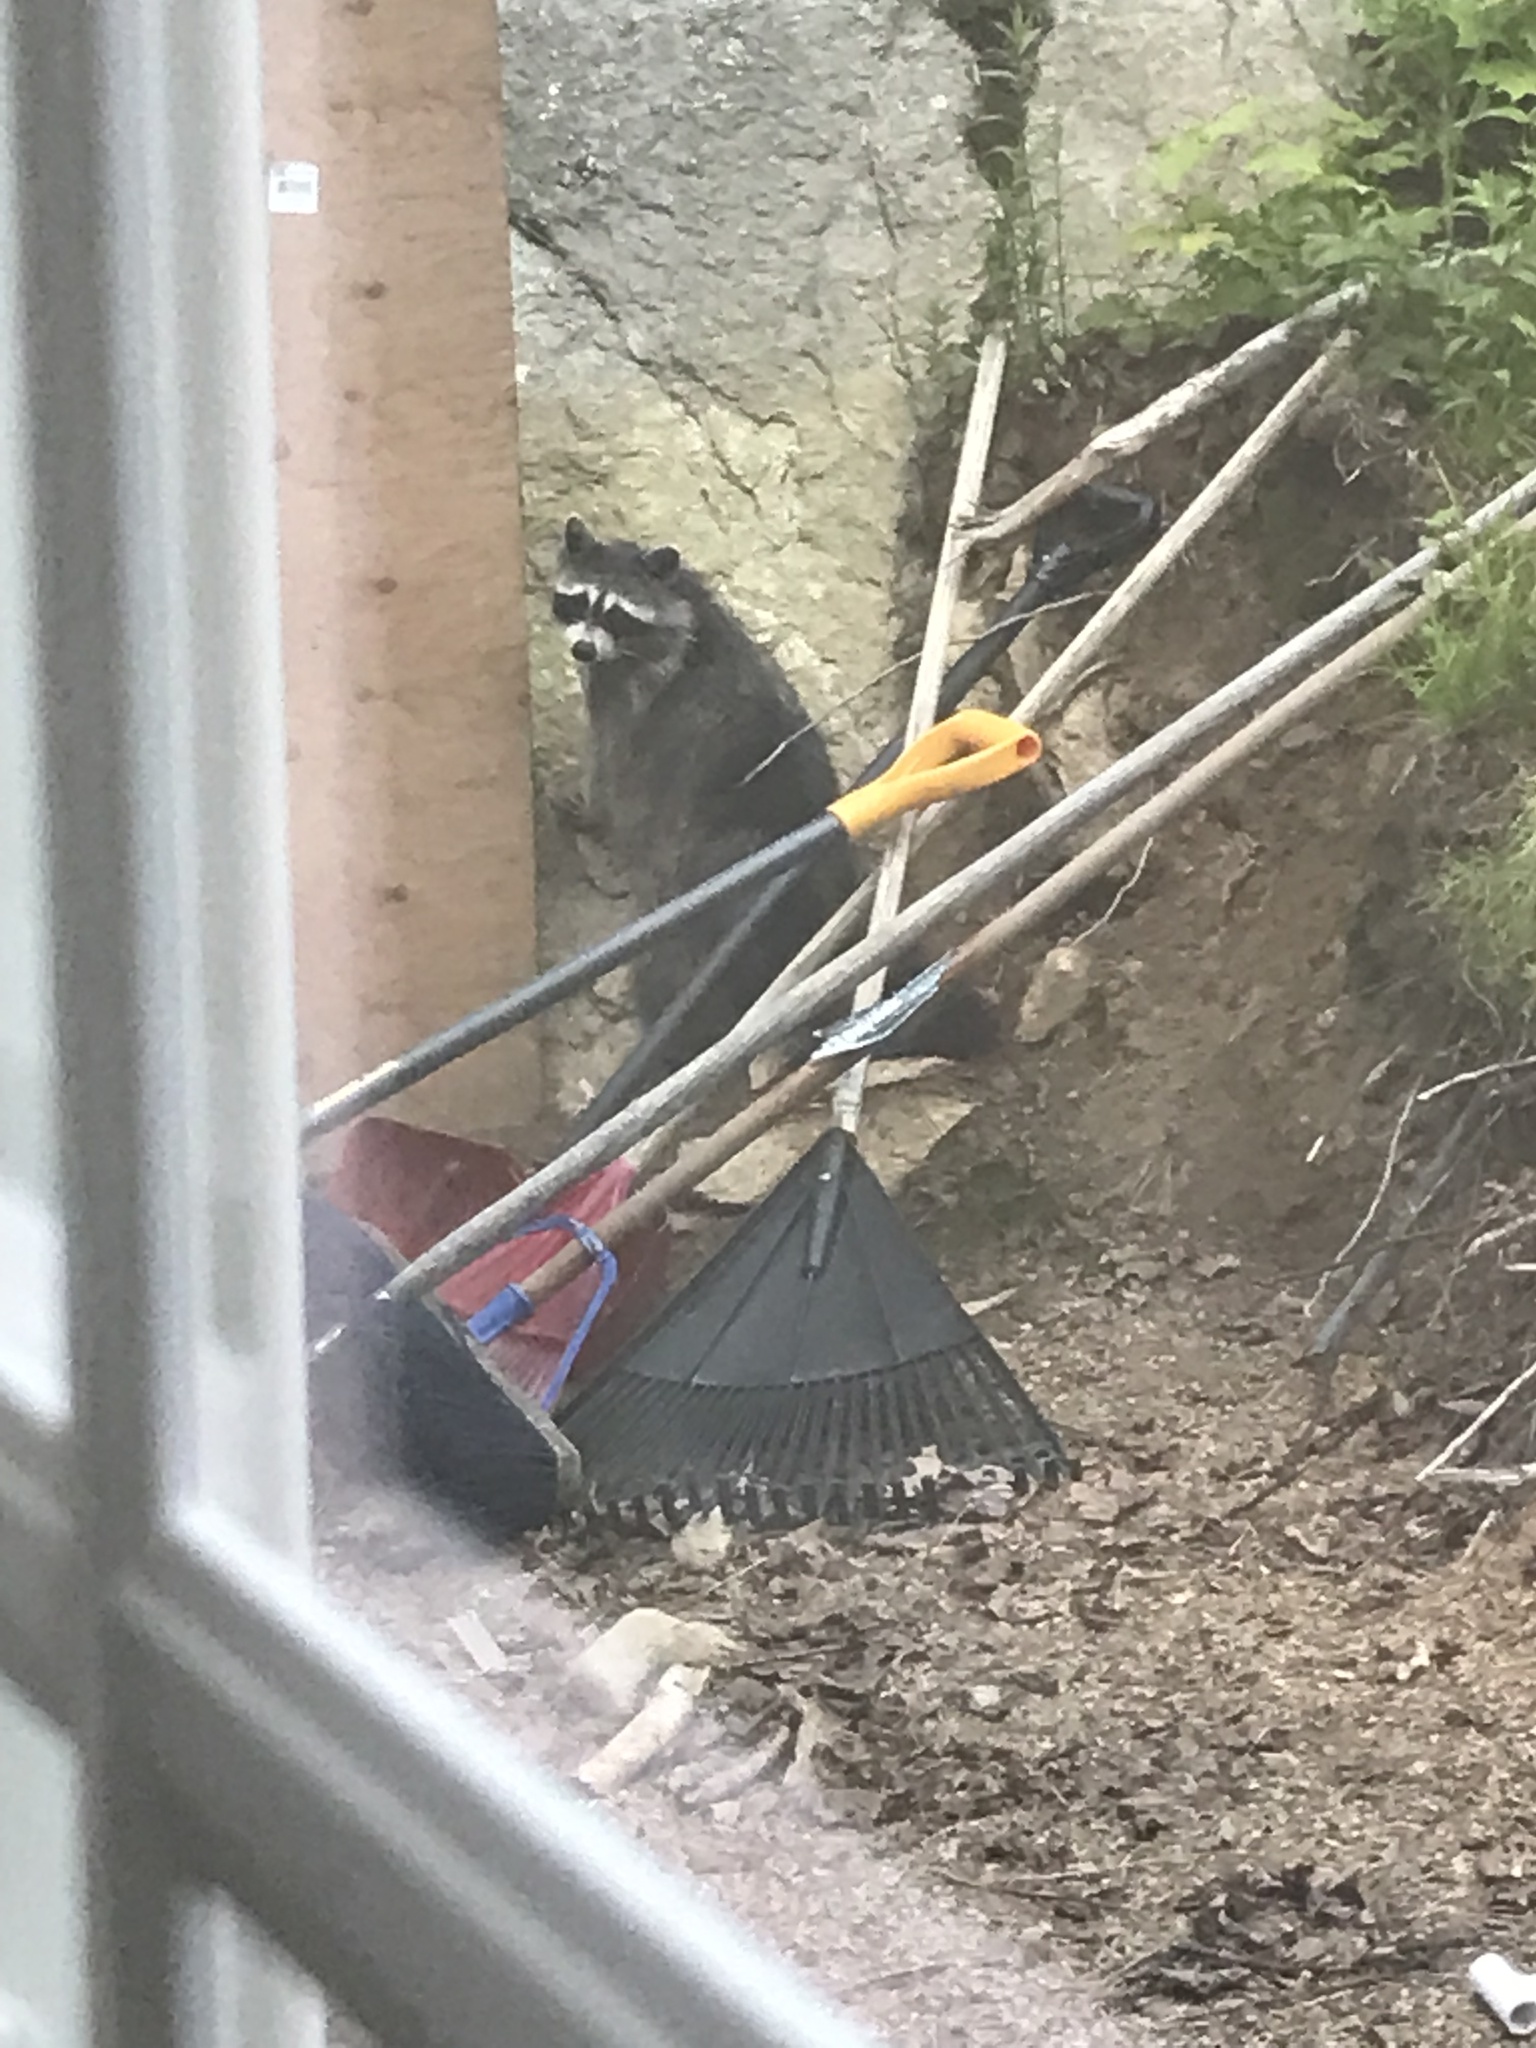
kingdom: Animalia
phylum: Chordata
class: Mammalia
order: Carnivora
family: Procyonidae
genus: Procyon
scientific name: Procyon lotor
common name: Raccoon
